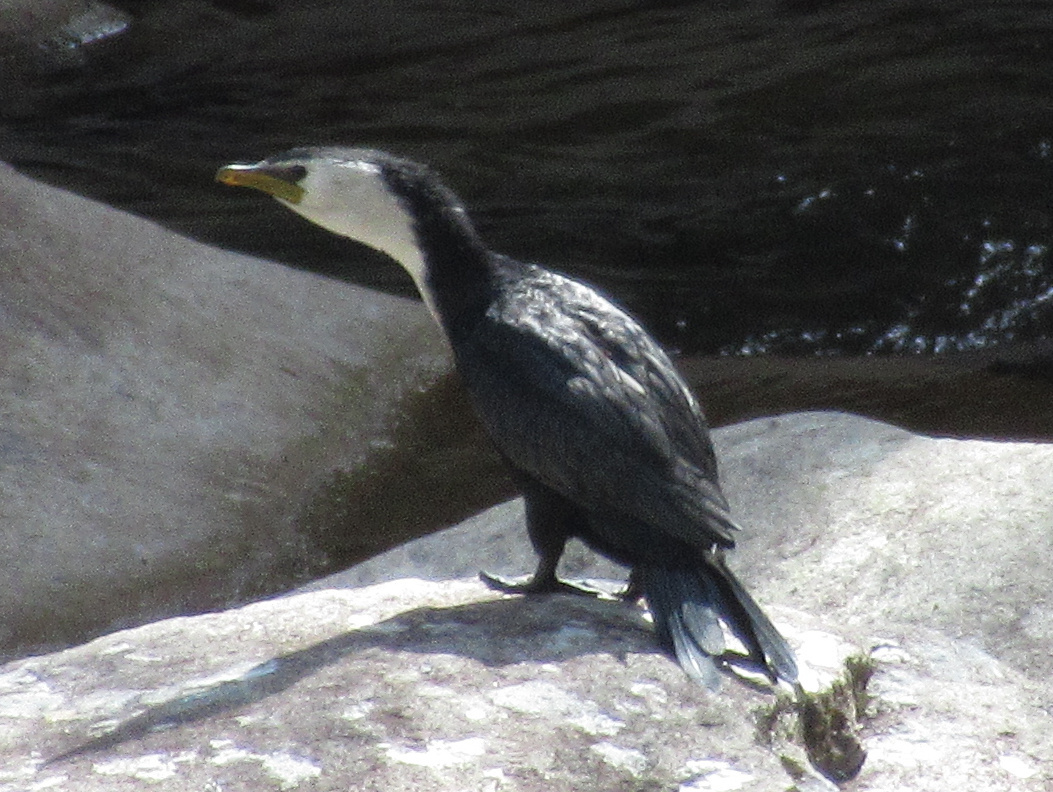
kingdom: Animalia
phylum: Chordata
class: Aves
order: Suliformes
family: Phalacrocoracidae
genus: Microcarbo
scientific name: Microcarbo melanoleucos
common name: Little pied cormorant
